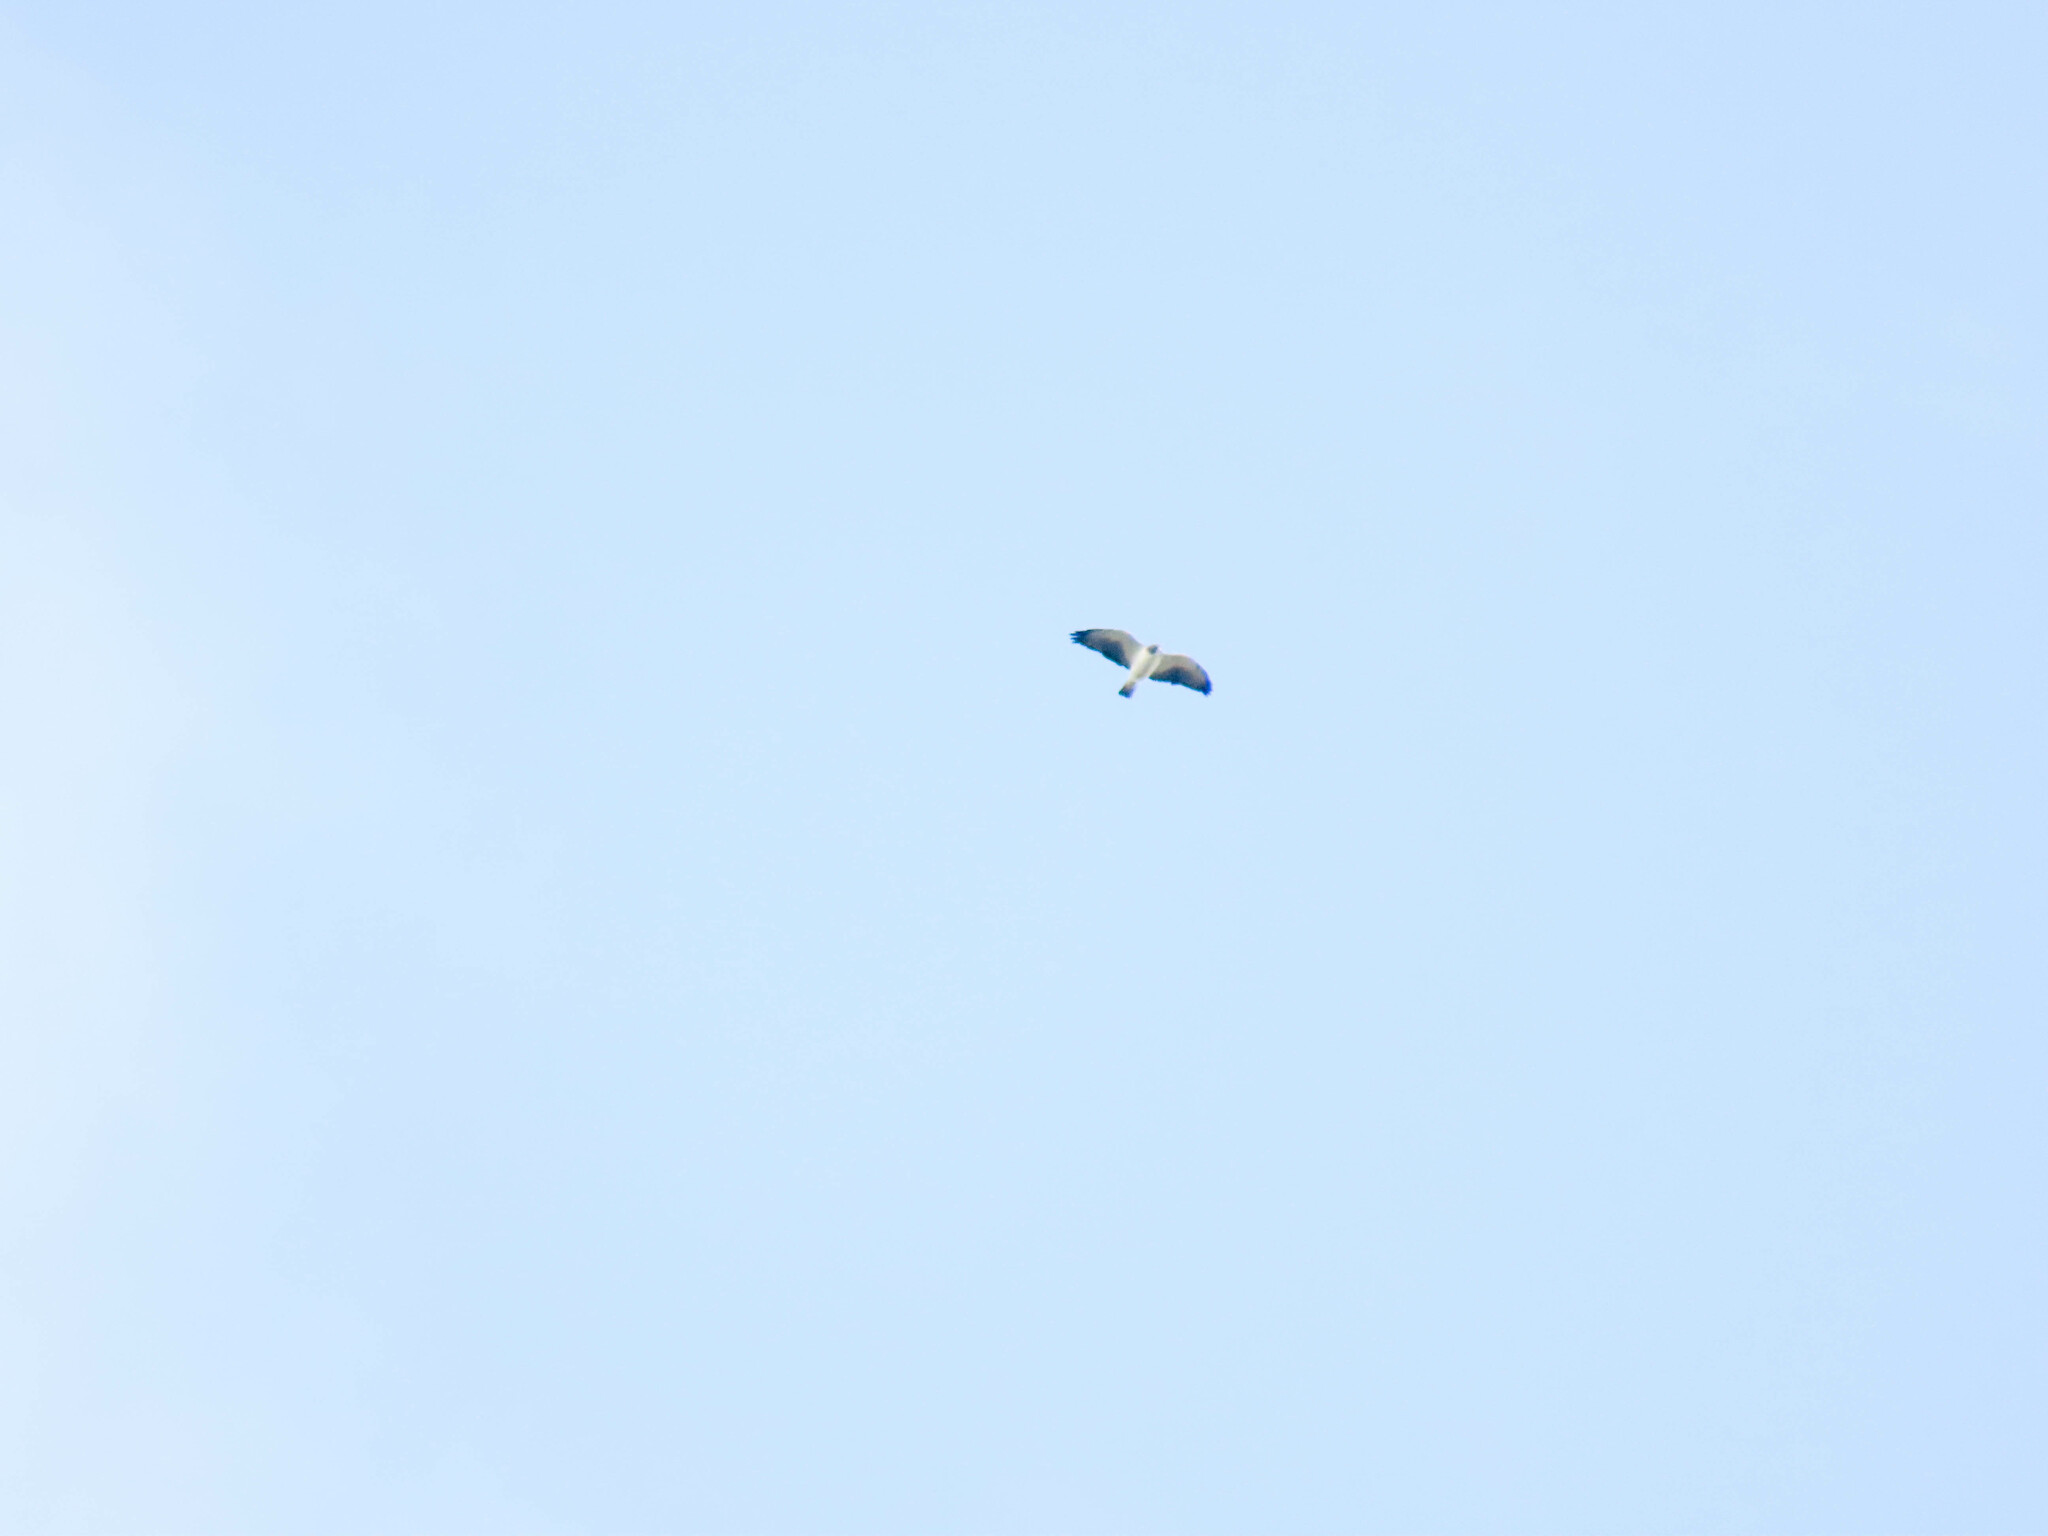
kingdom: Animalia
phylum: Chordata
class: Aves
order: Accipitriformes
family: Accipitridae
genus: Buteo
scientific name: Buteo brachyurus
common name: Short-tailed hawk
